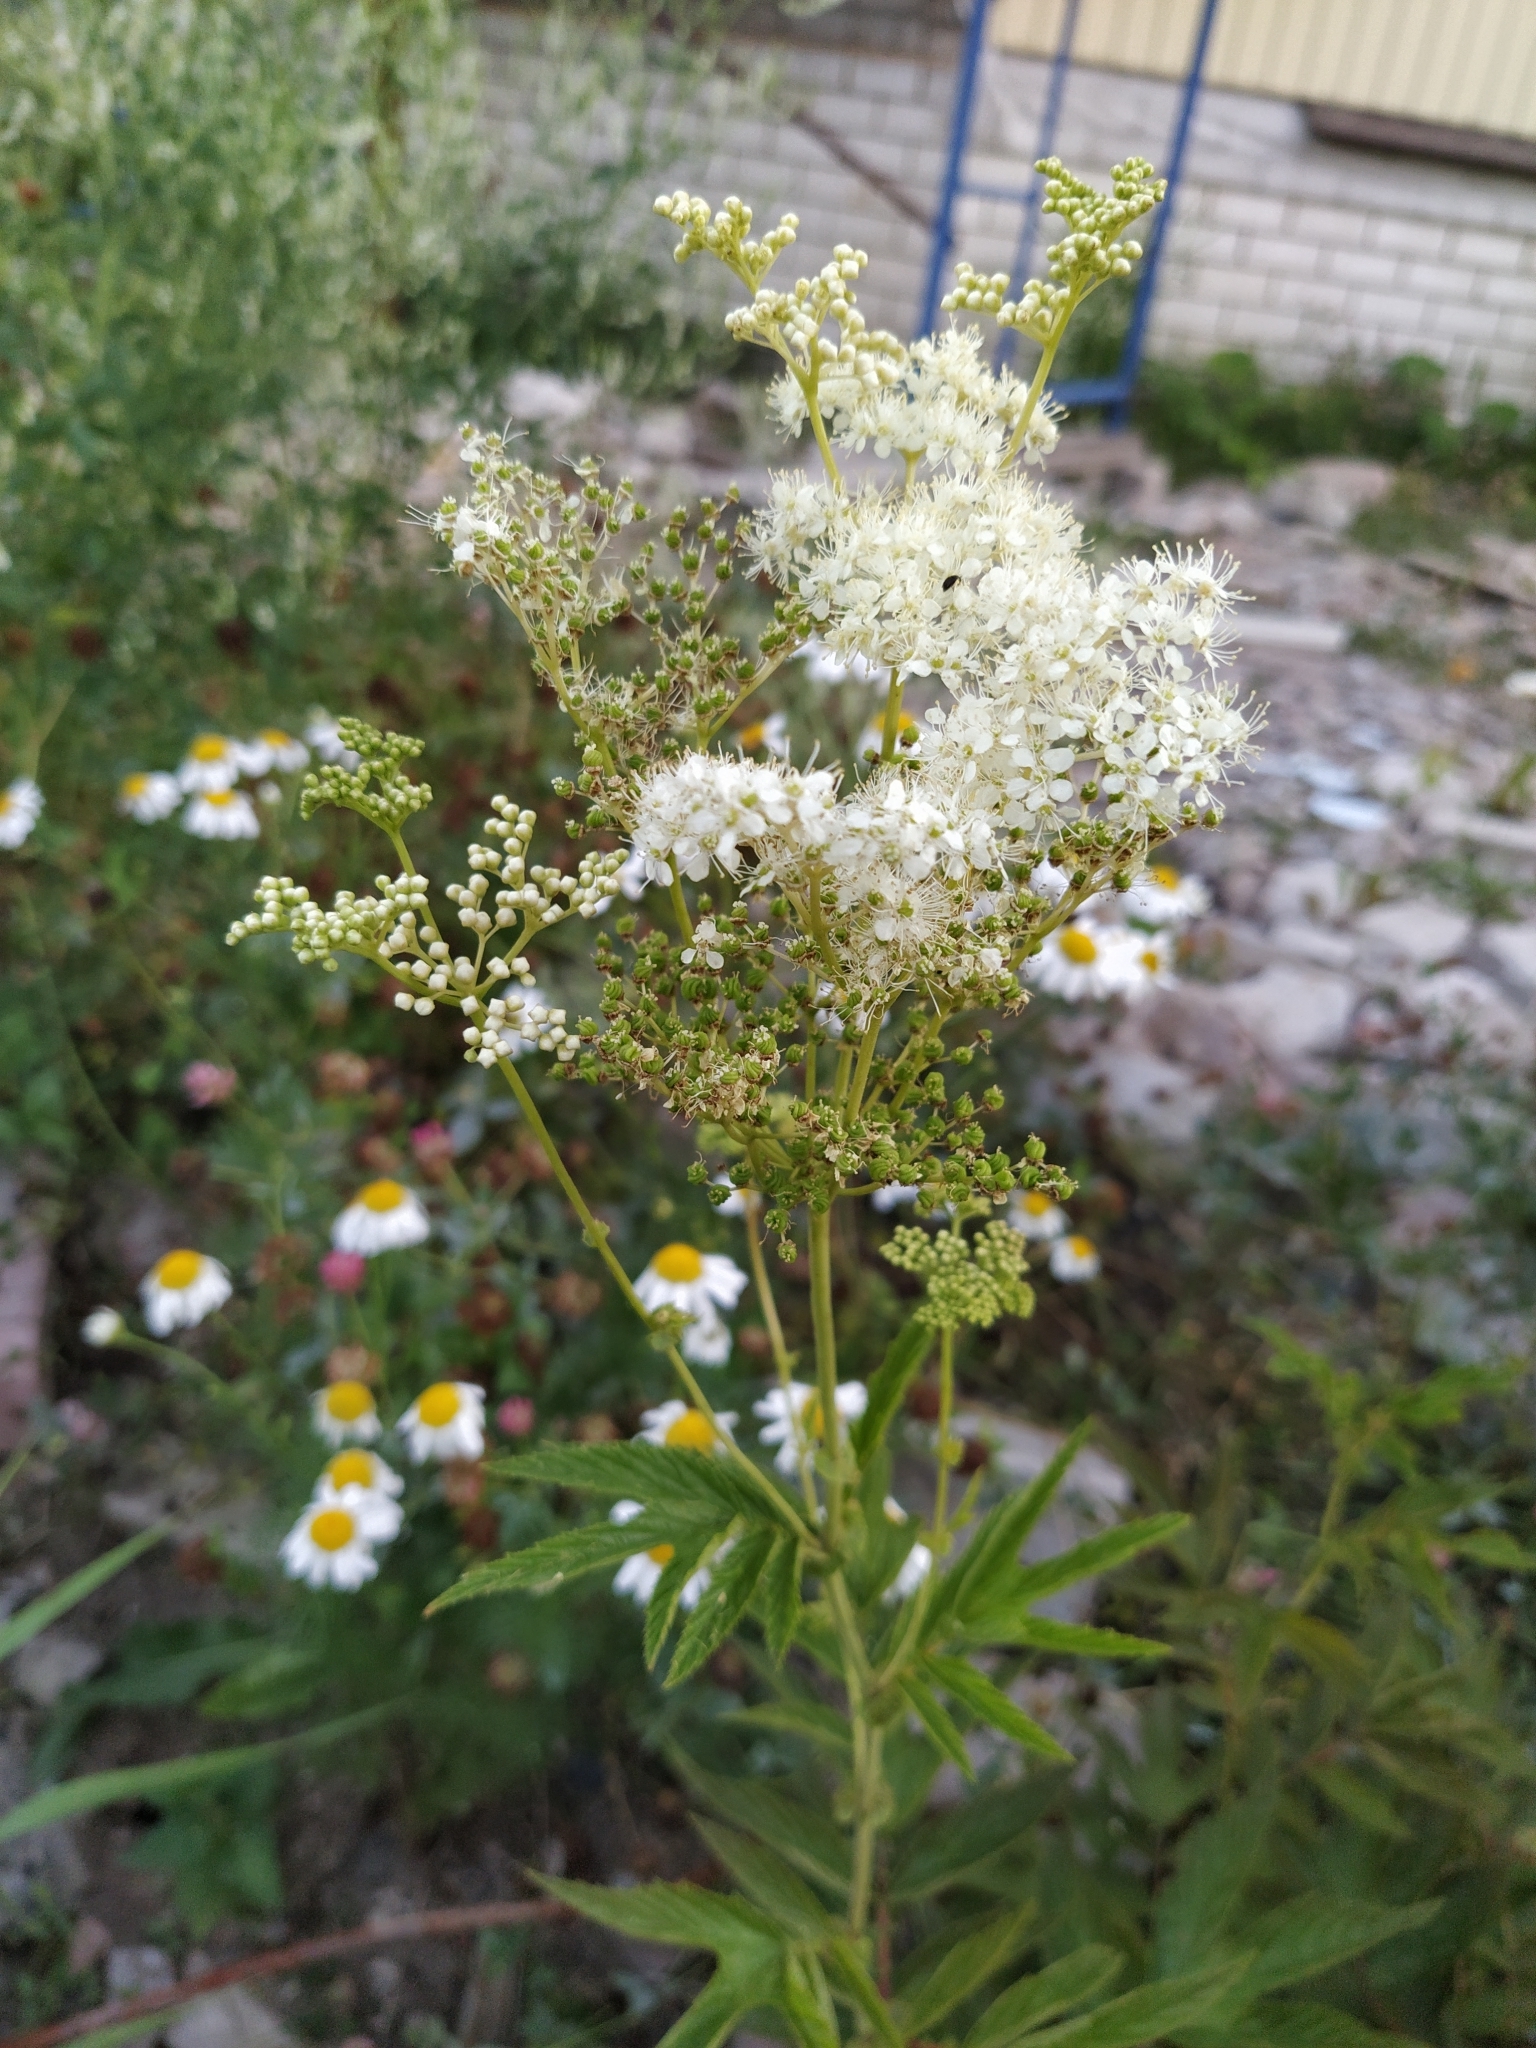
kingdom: Plantae
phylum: Tracheophyta
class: Magnoliopsida
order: Rosales
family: Rosaceae
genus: Filipendula
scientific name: Filipendula ulmaria
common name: Meadowsweet
